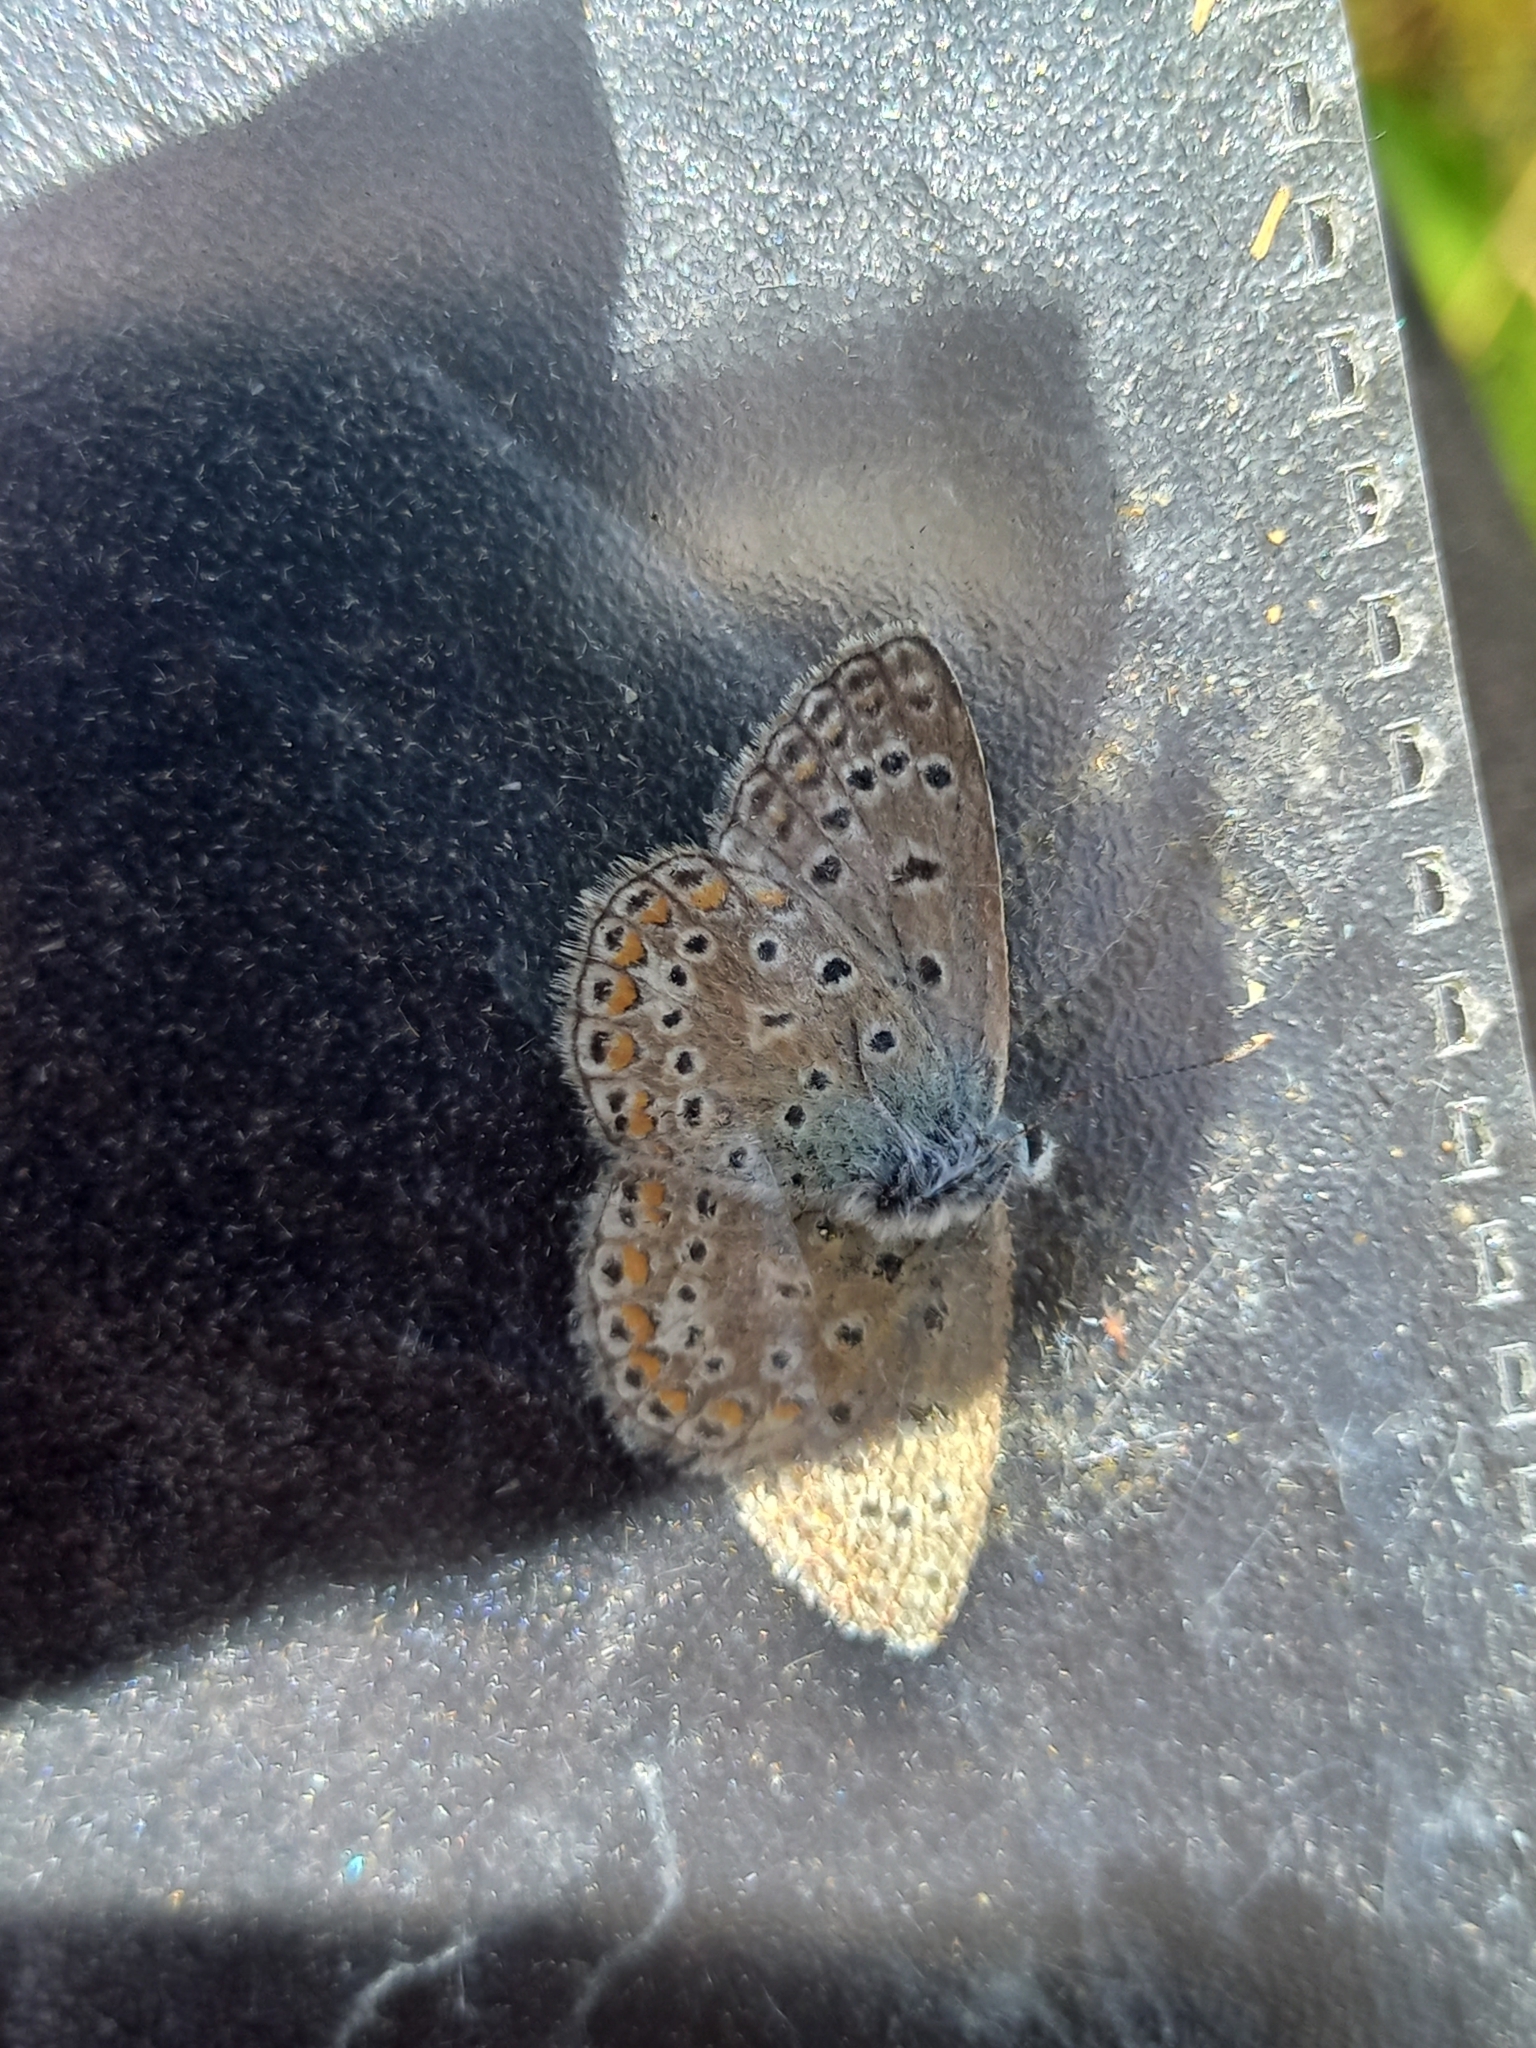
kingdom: Animalia
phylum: Arthropoda
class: Insecta
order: Lepidoptera
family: Lycaenidae
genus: Polyommatus
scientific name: Polyommatus icarus
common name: Common blue
